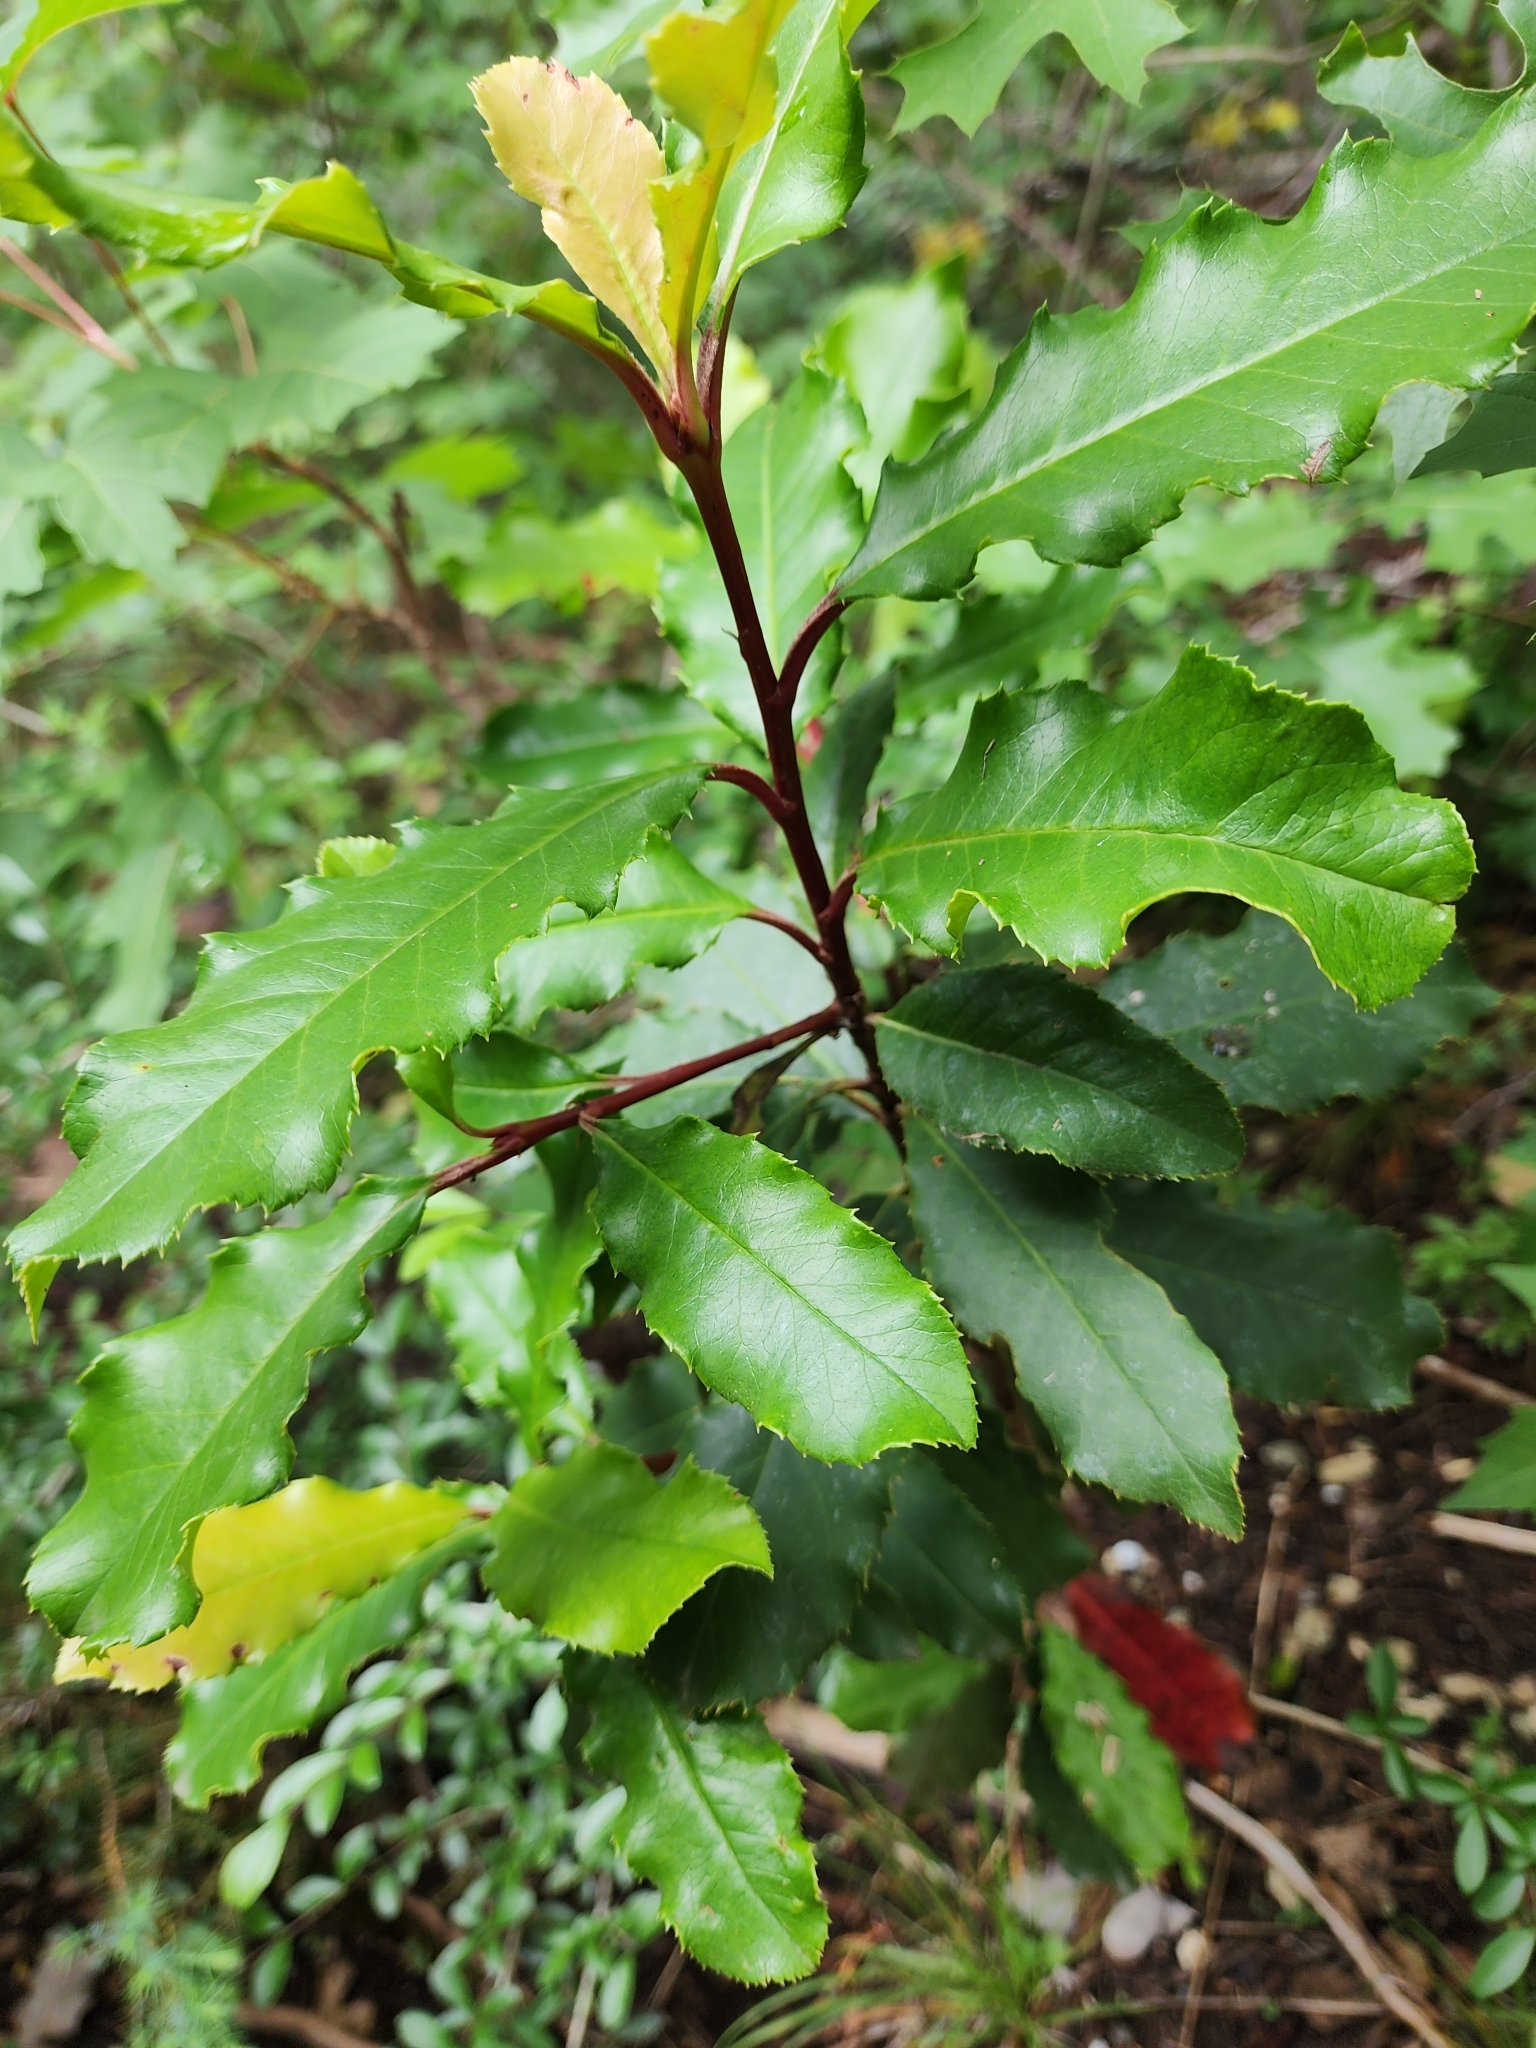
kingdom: Plantae
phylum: Tracheophyta
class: Magnoliopsida
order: Rosales
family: Rosaceae
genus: Photinia
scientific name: Photinia serratifolia
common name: Taiwanese photinia
